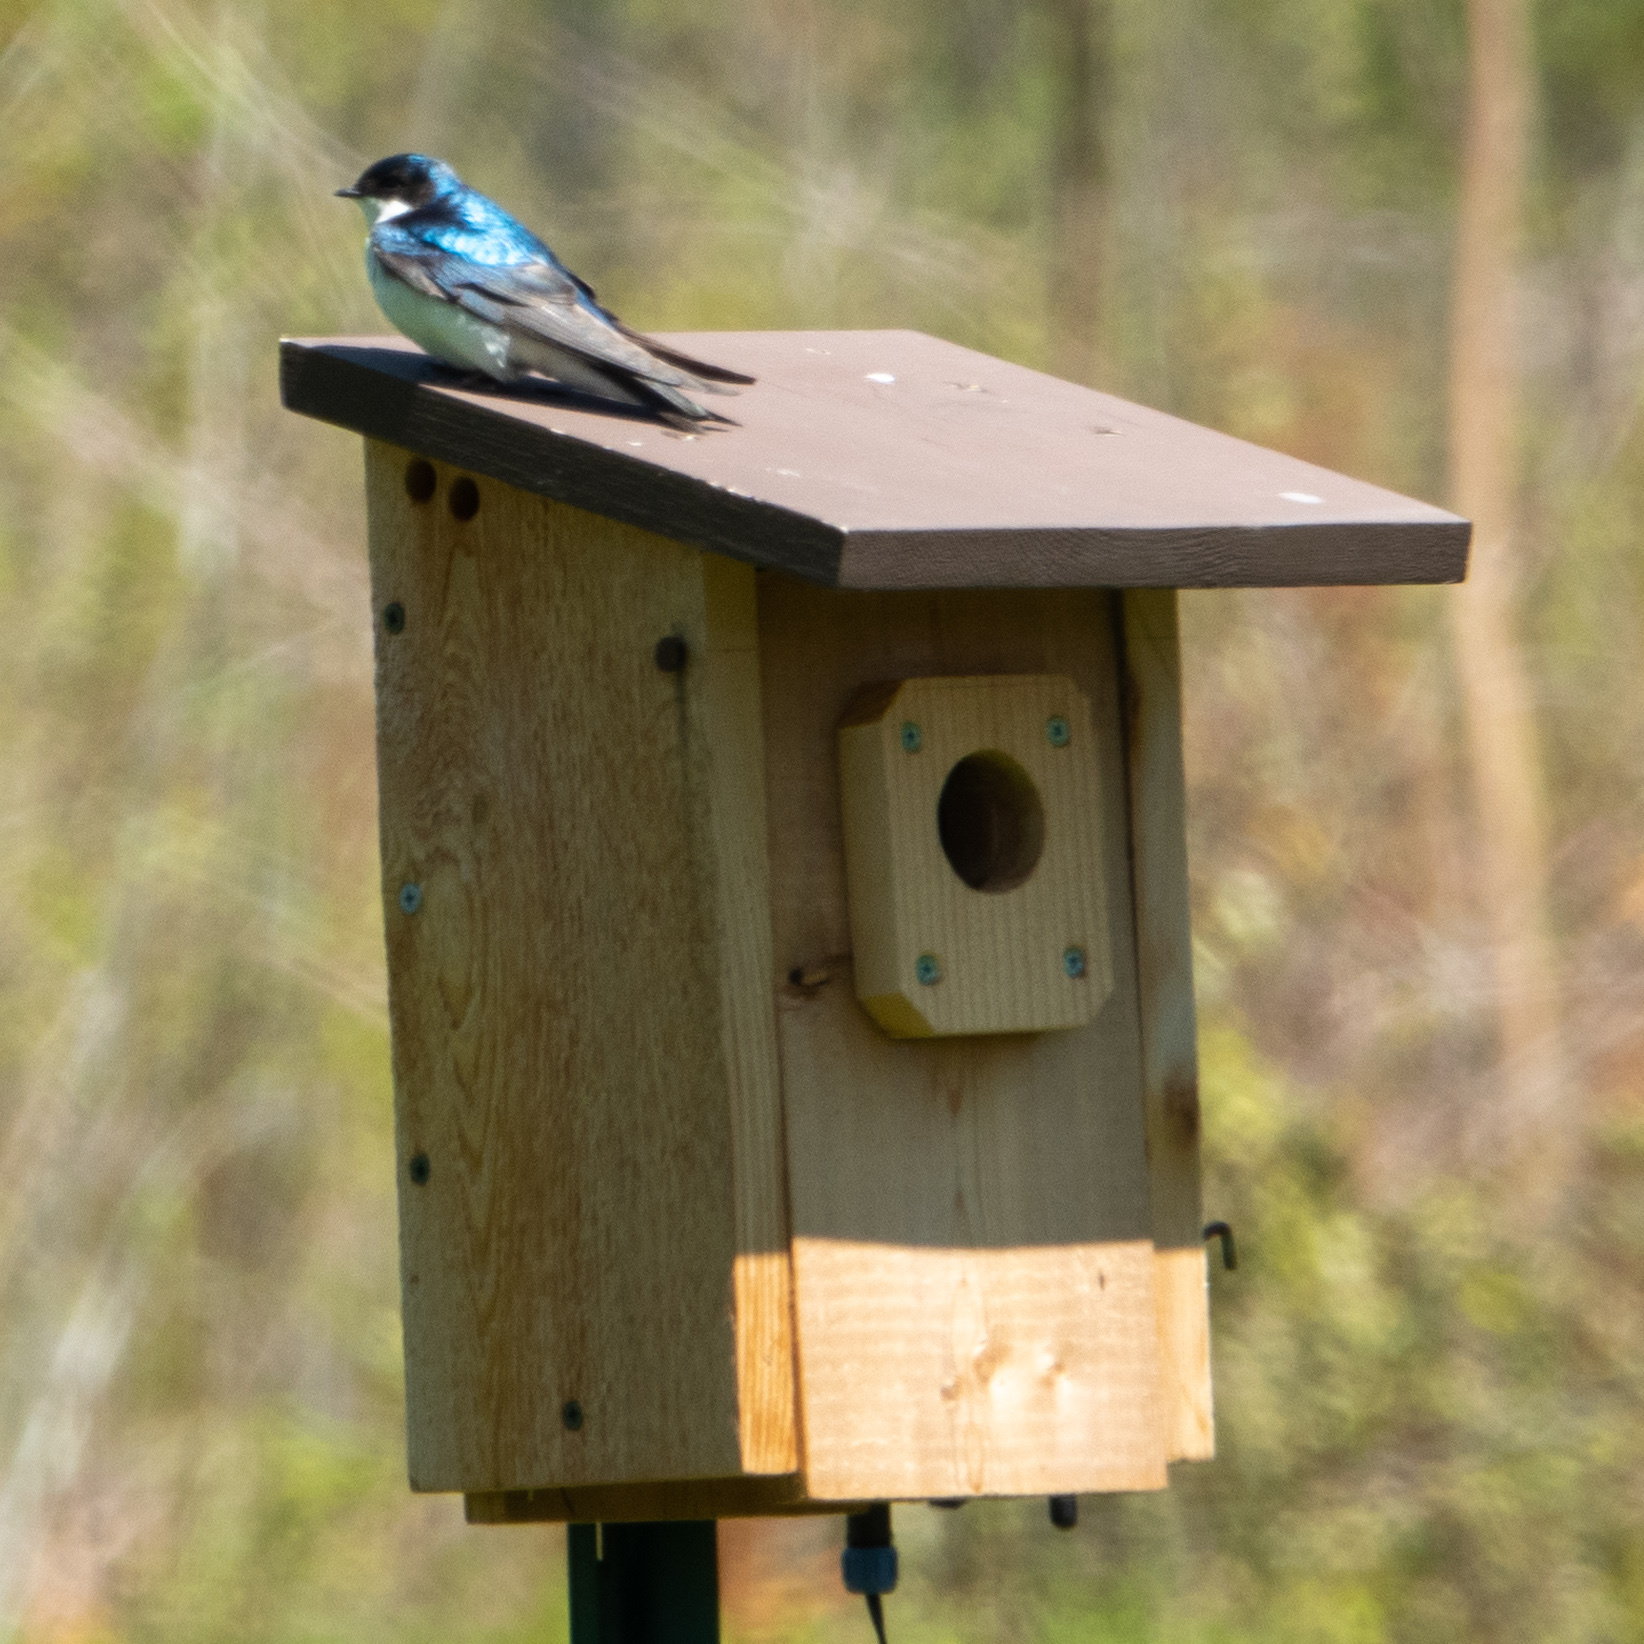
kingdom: Animalia
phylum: Chordata
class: Aves
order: Passeriformes
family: Hirundinidae
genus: Tachycineta
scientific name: Tachycineta bicolor
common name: Tree swallow
